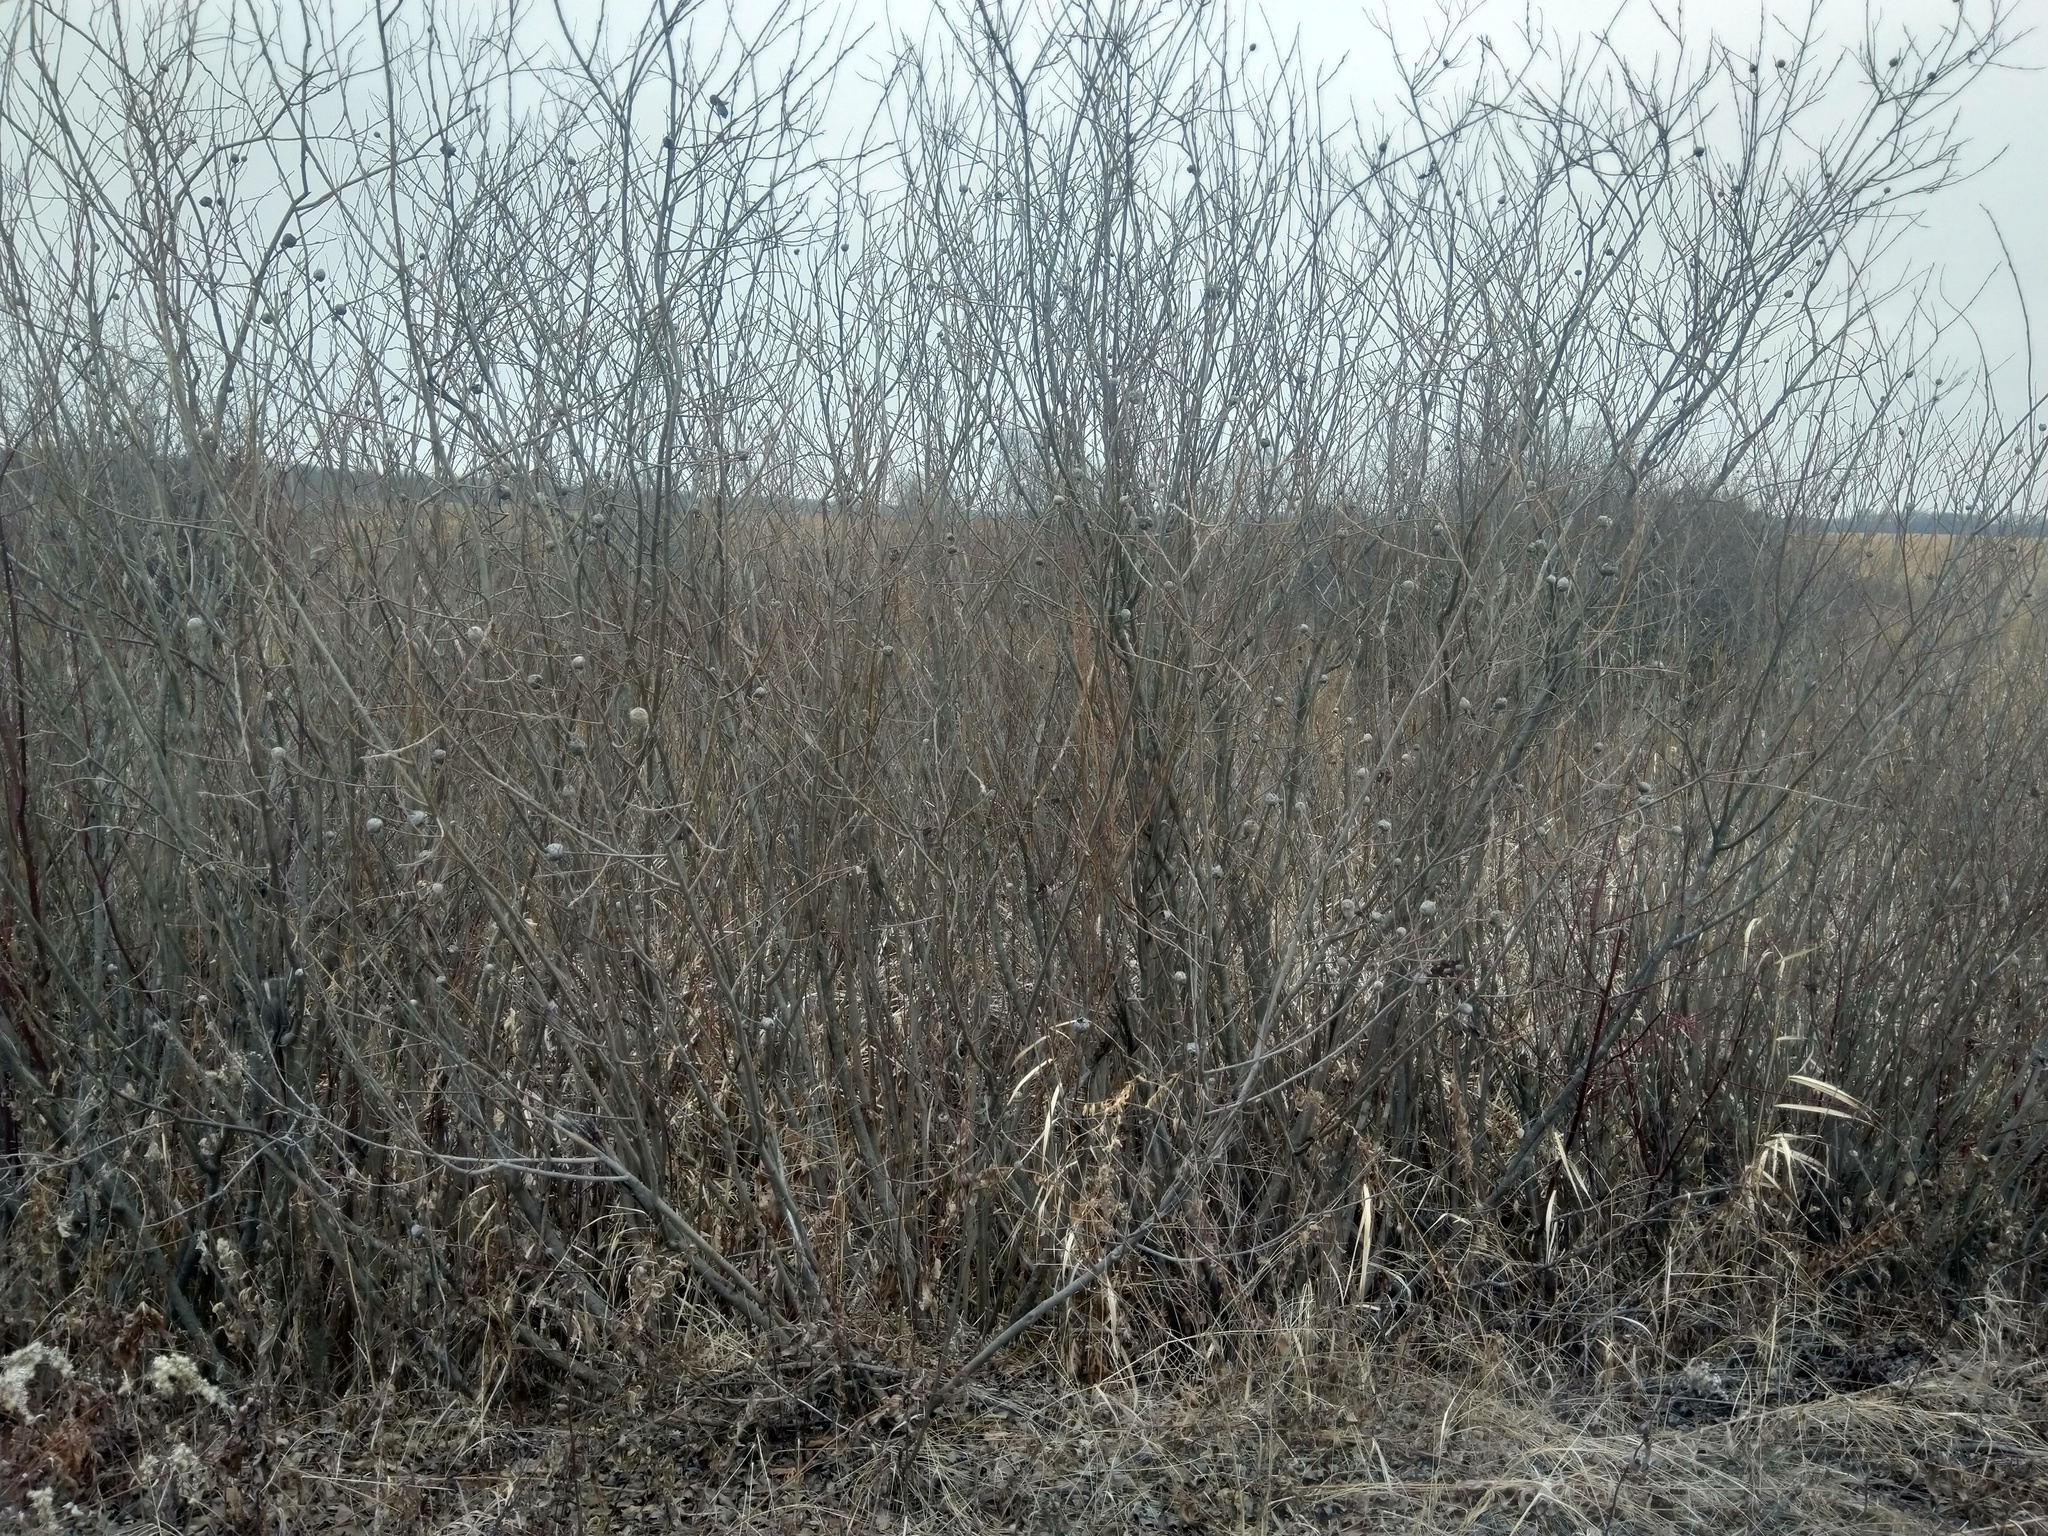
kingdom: Animalia
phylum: Arthropoda
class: Insecta
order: Diptera
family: Cecidomyiidae
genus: Rabdophaga
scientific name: Rabdophaga strobiloides
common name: Willow pinecone gall midge
